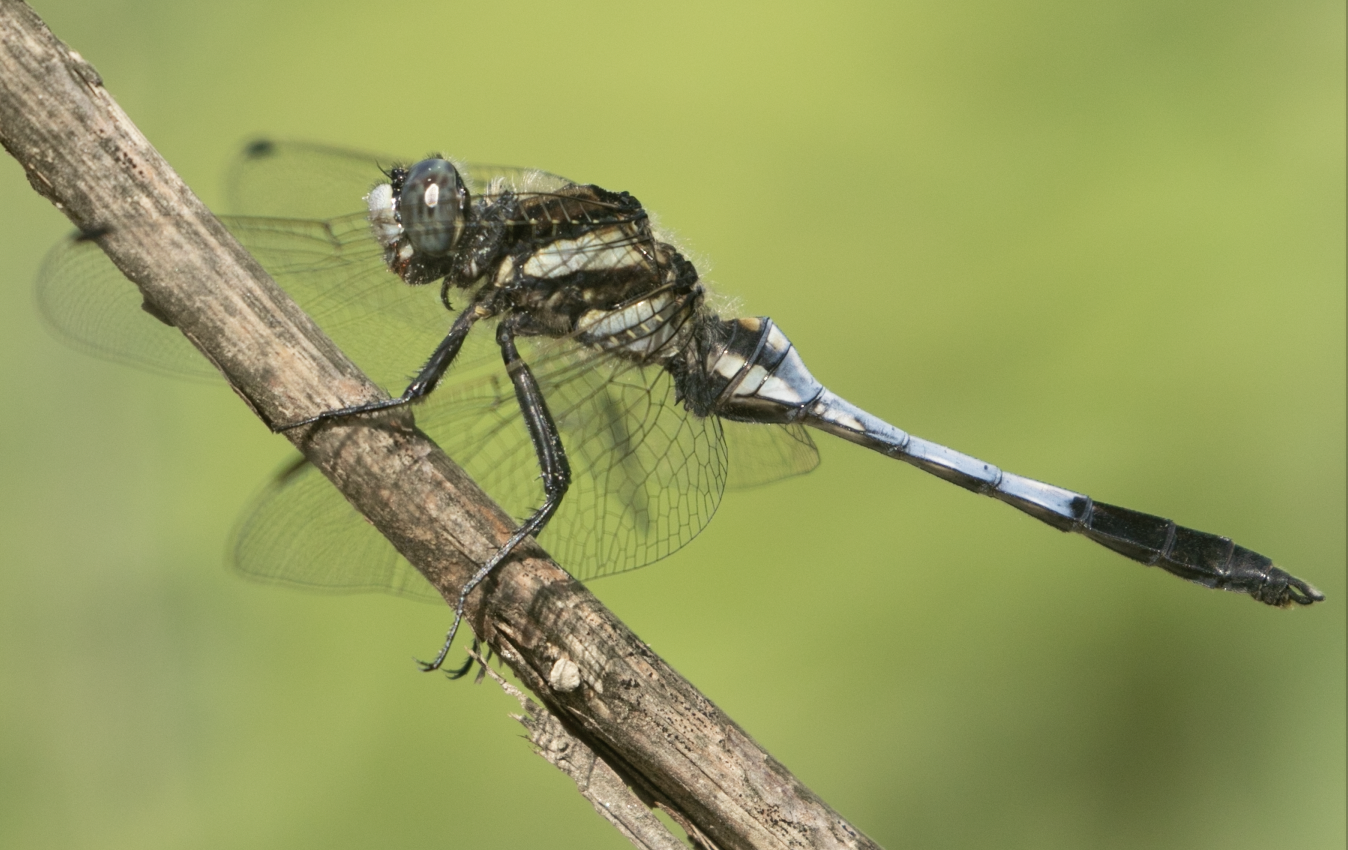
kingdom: Animalia
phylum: Arthropoda
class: Insecta
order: Odonata
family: Libellulidae
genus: Orthetrum
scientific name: Orthetrum albistylum
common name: White-tailed skimmer
